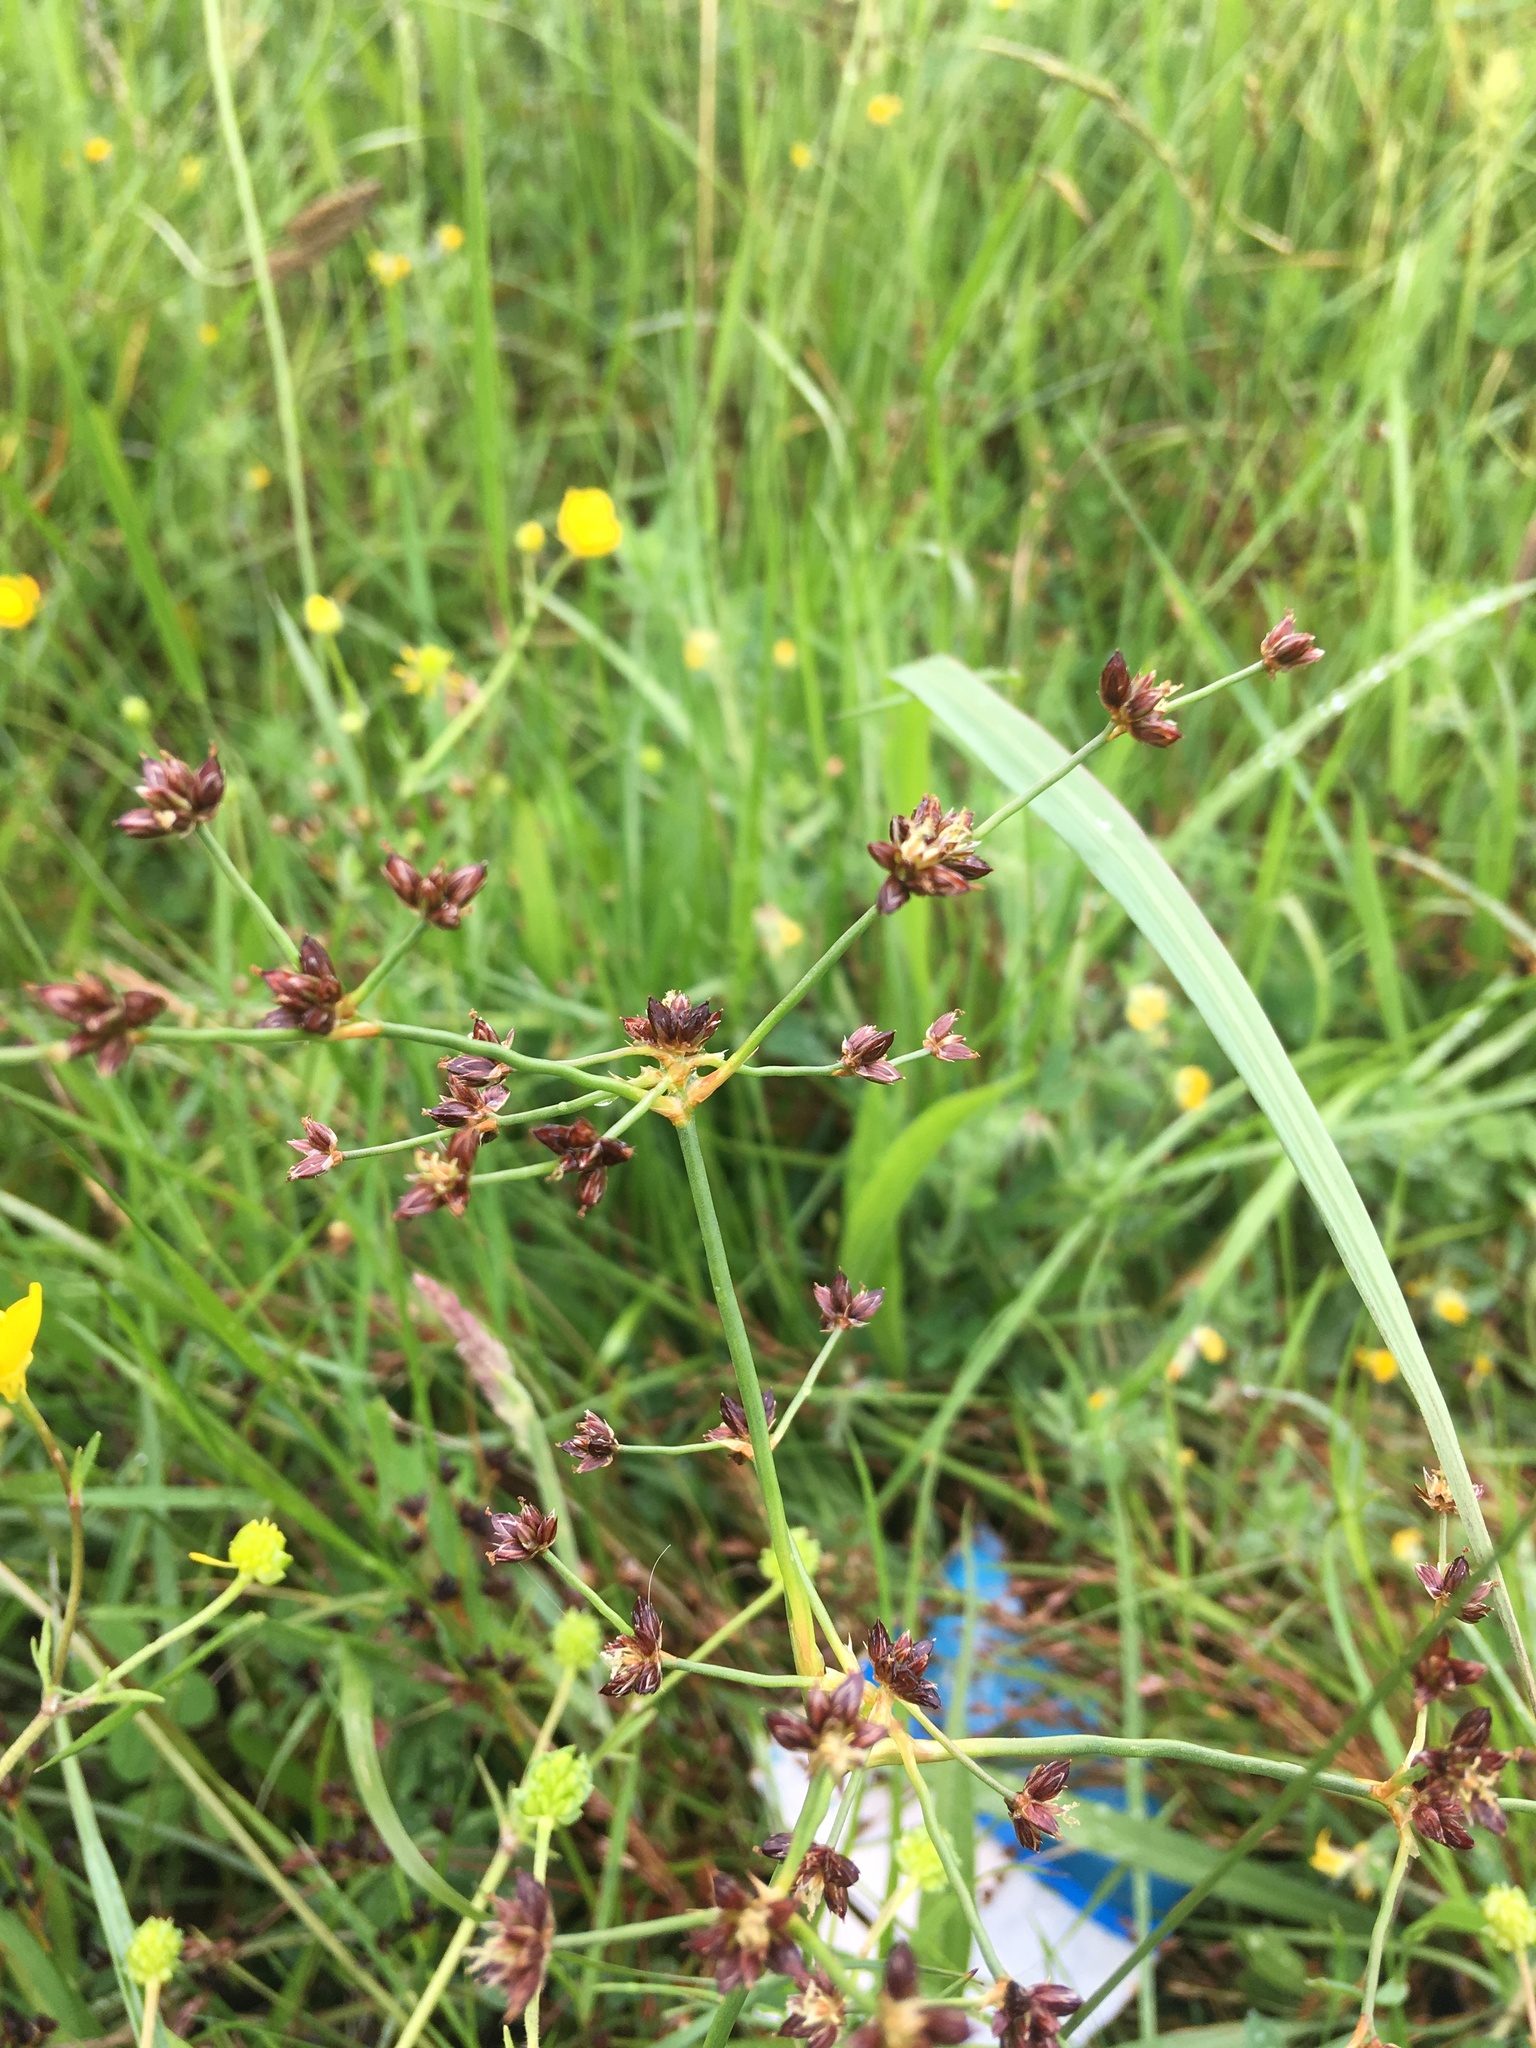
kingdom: Plantae
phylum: Tracheophyta
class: Liliopsida
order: Poales
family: Juncaceae
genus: Juncus
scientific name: Juncus articulatus
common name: Jointed rush
